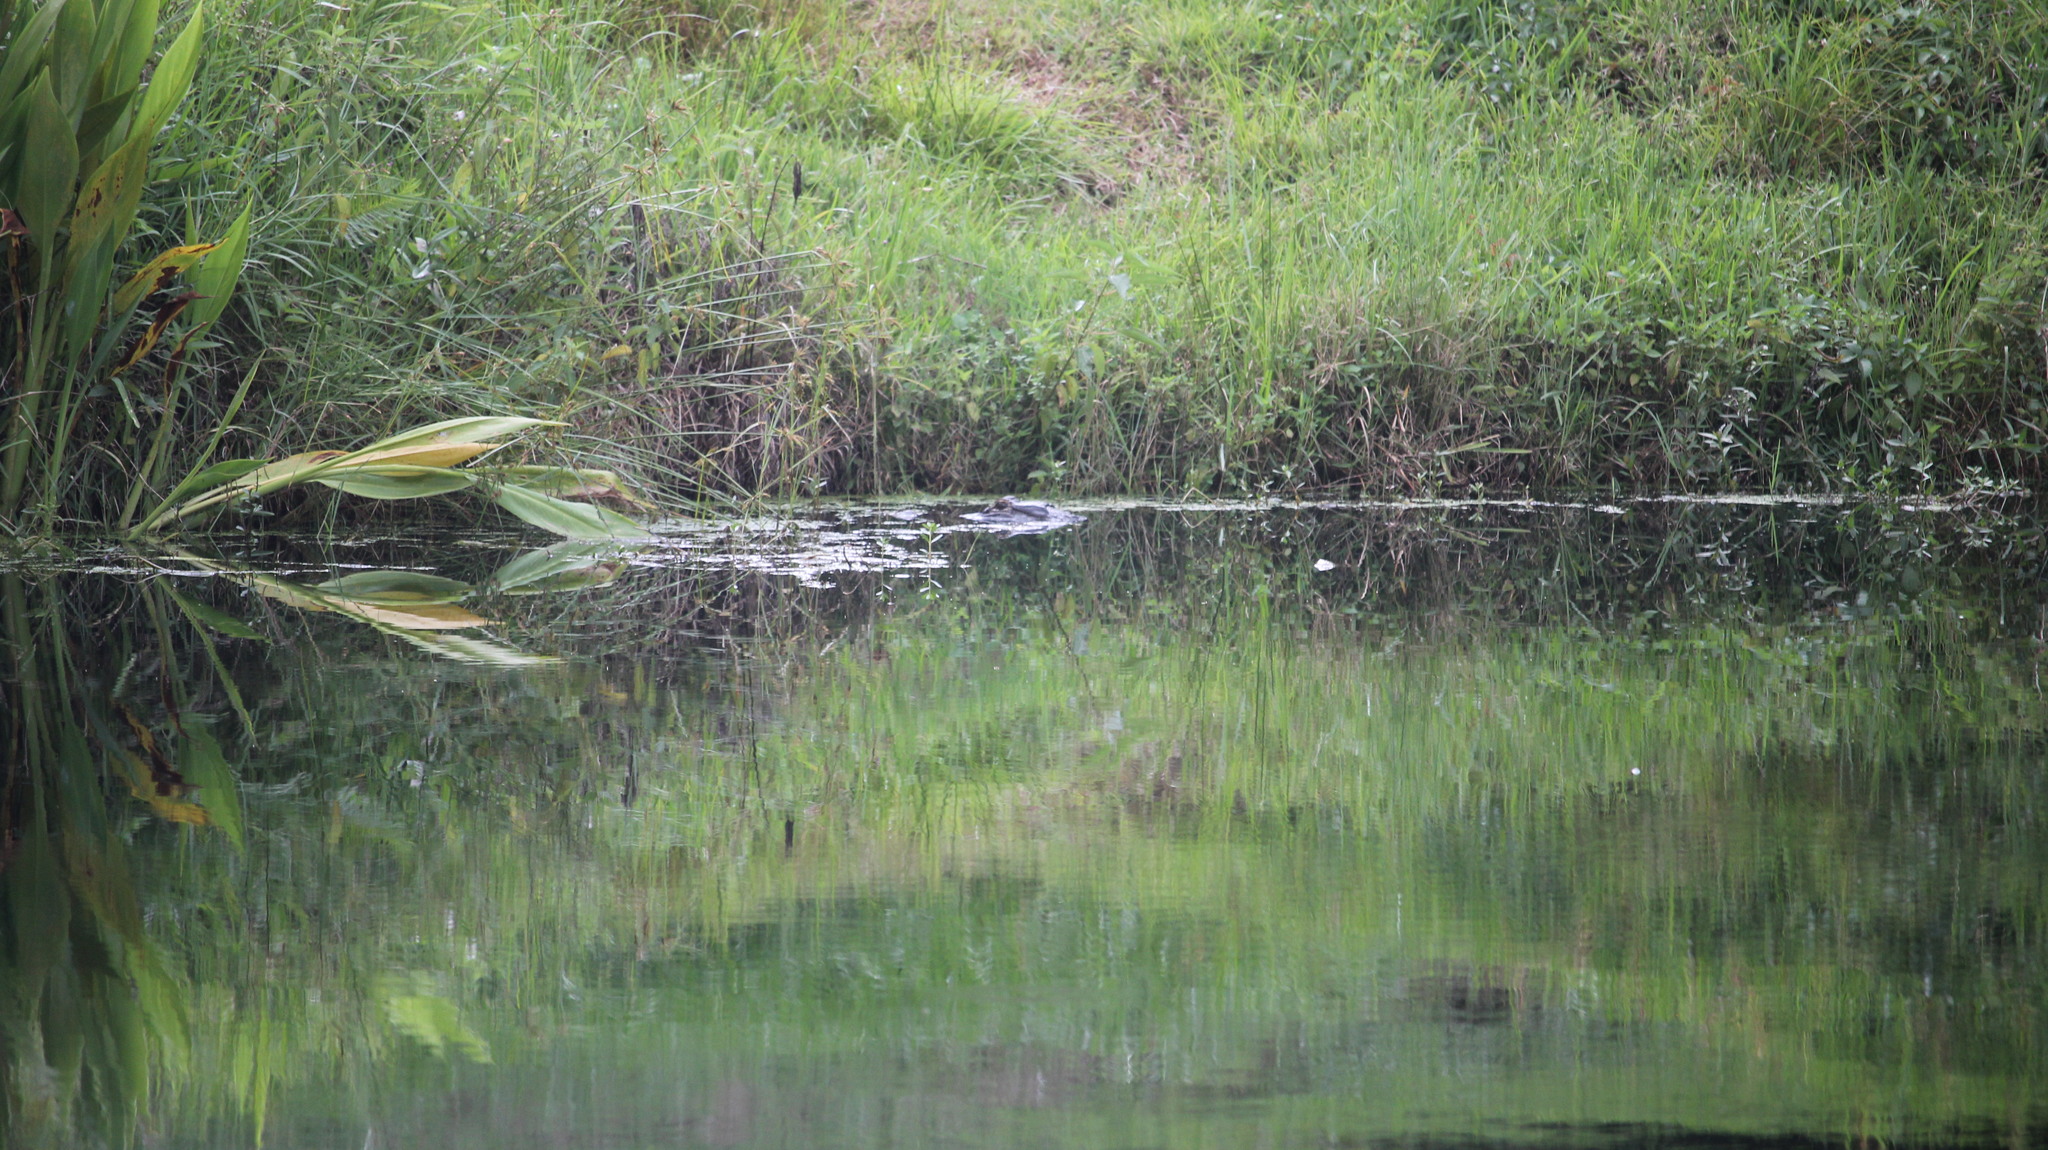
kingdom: Animalia
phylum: Chordata
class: Crocodylia
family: Alligatoridae
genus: Alligator
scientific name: Alligator mississippiensis
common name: American alligator
